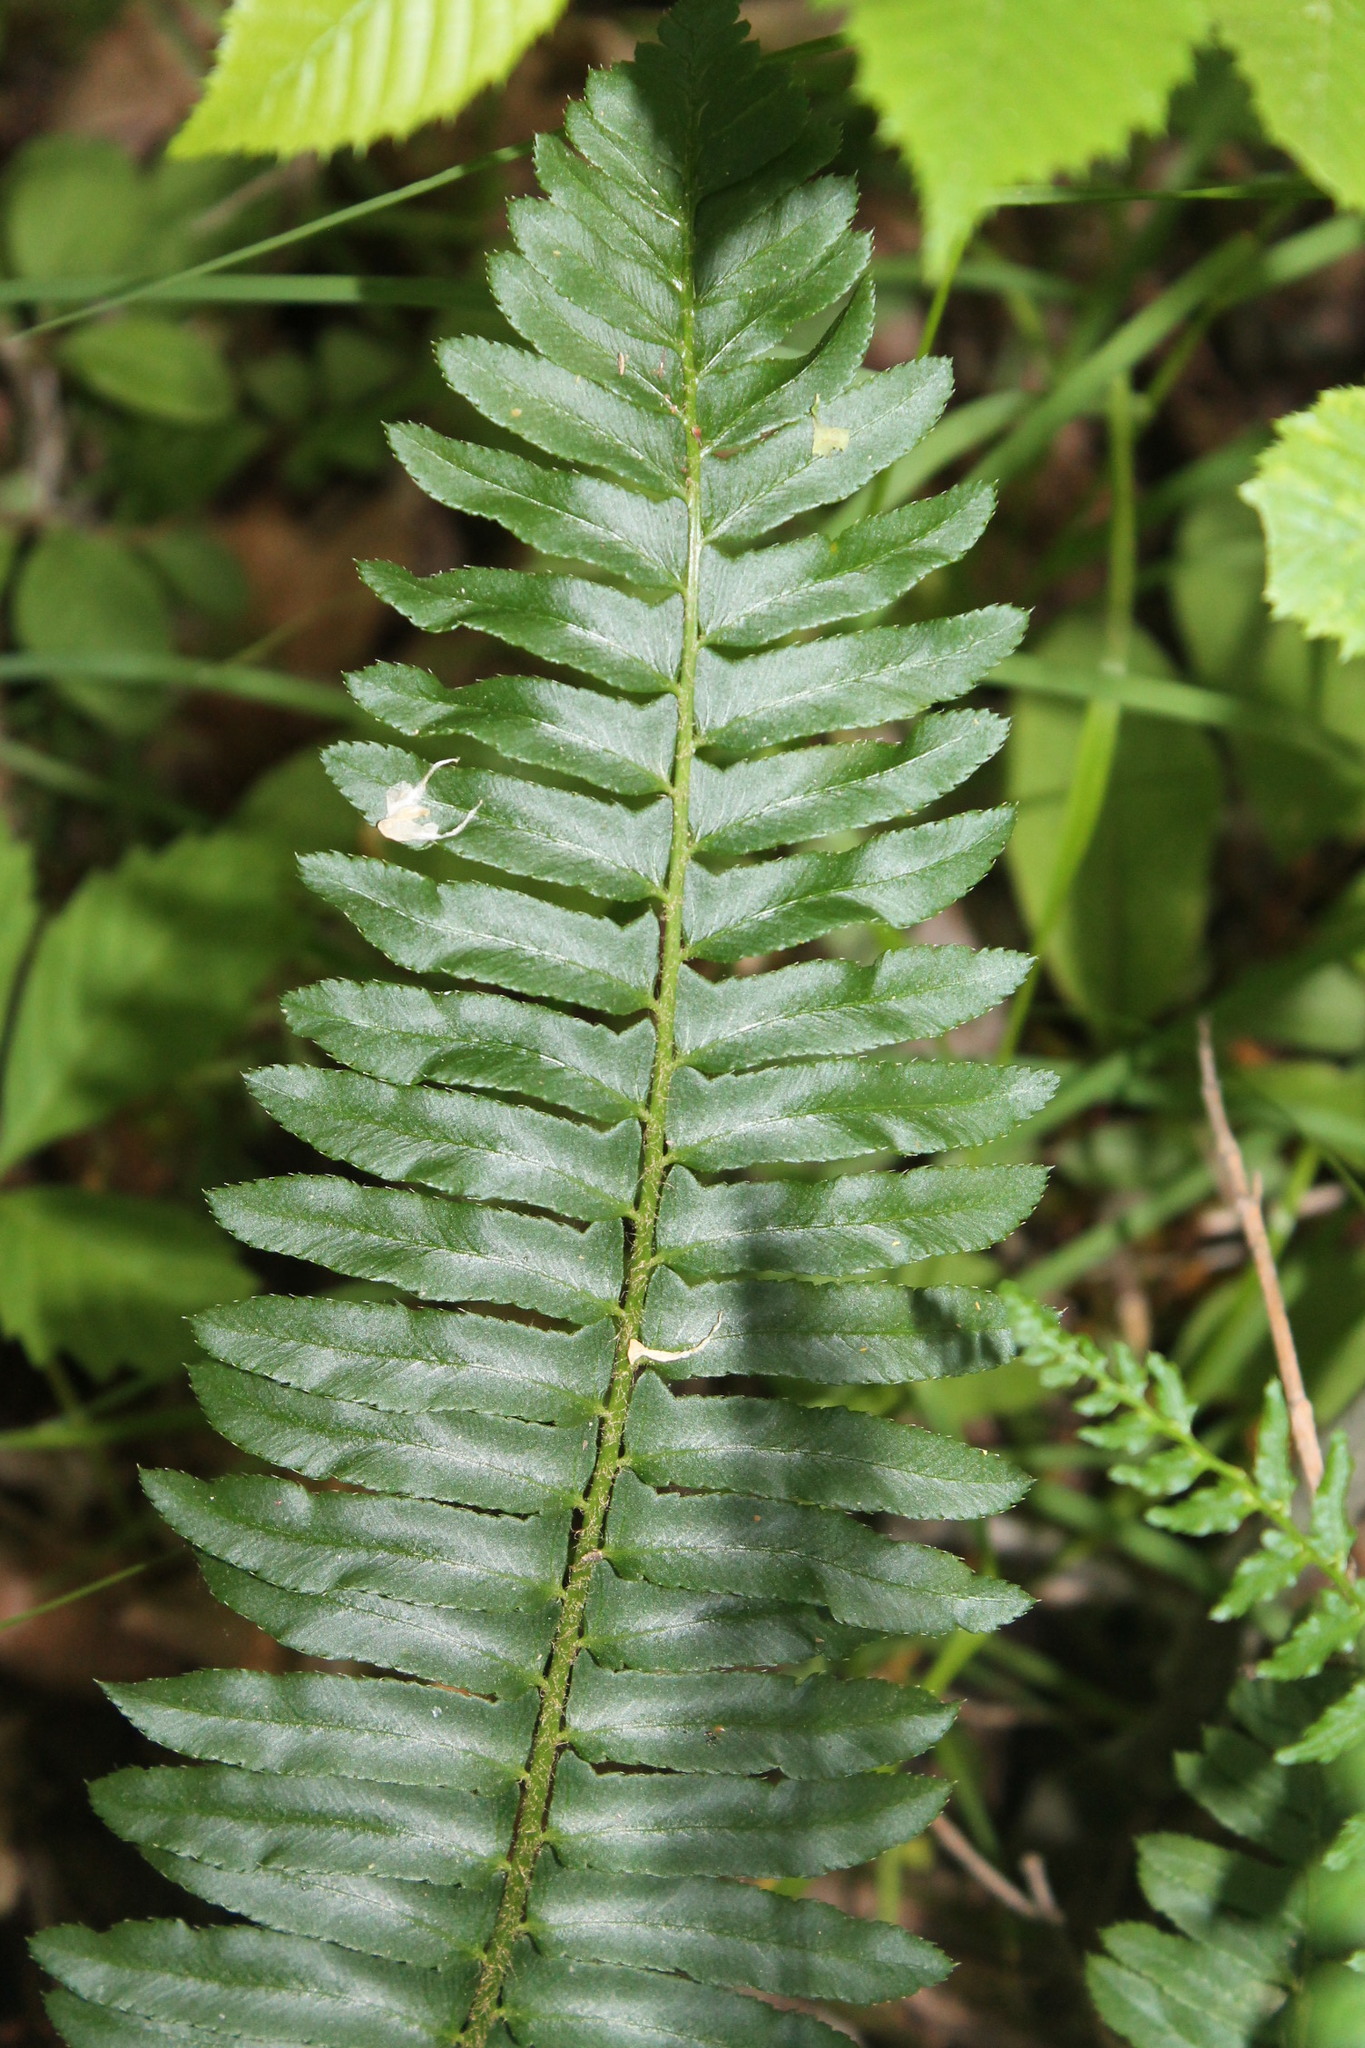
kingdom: Plantae
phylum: Tracheophyta
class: Polypodiopsida
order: Polypodiales
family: Dryopteridaceae
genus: Polystichum
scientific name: Polystichum acrostichoides
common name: Christmas fern
